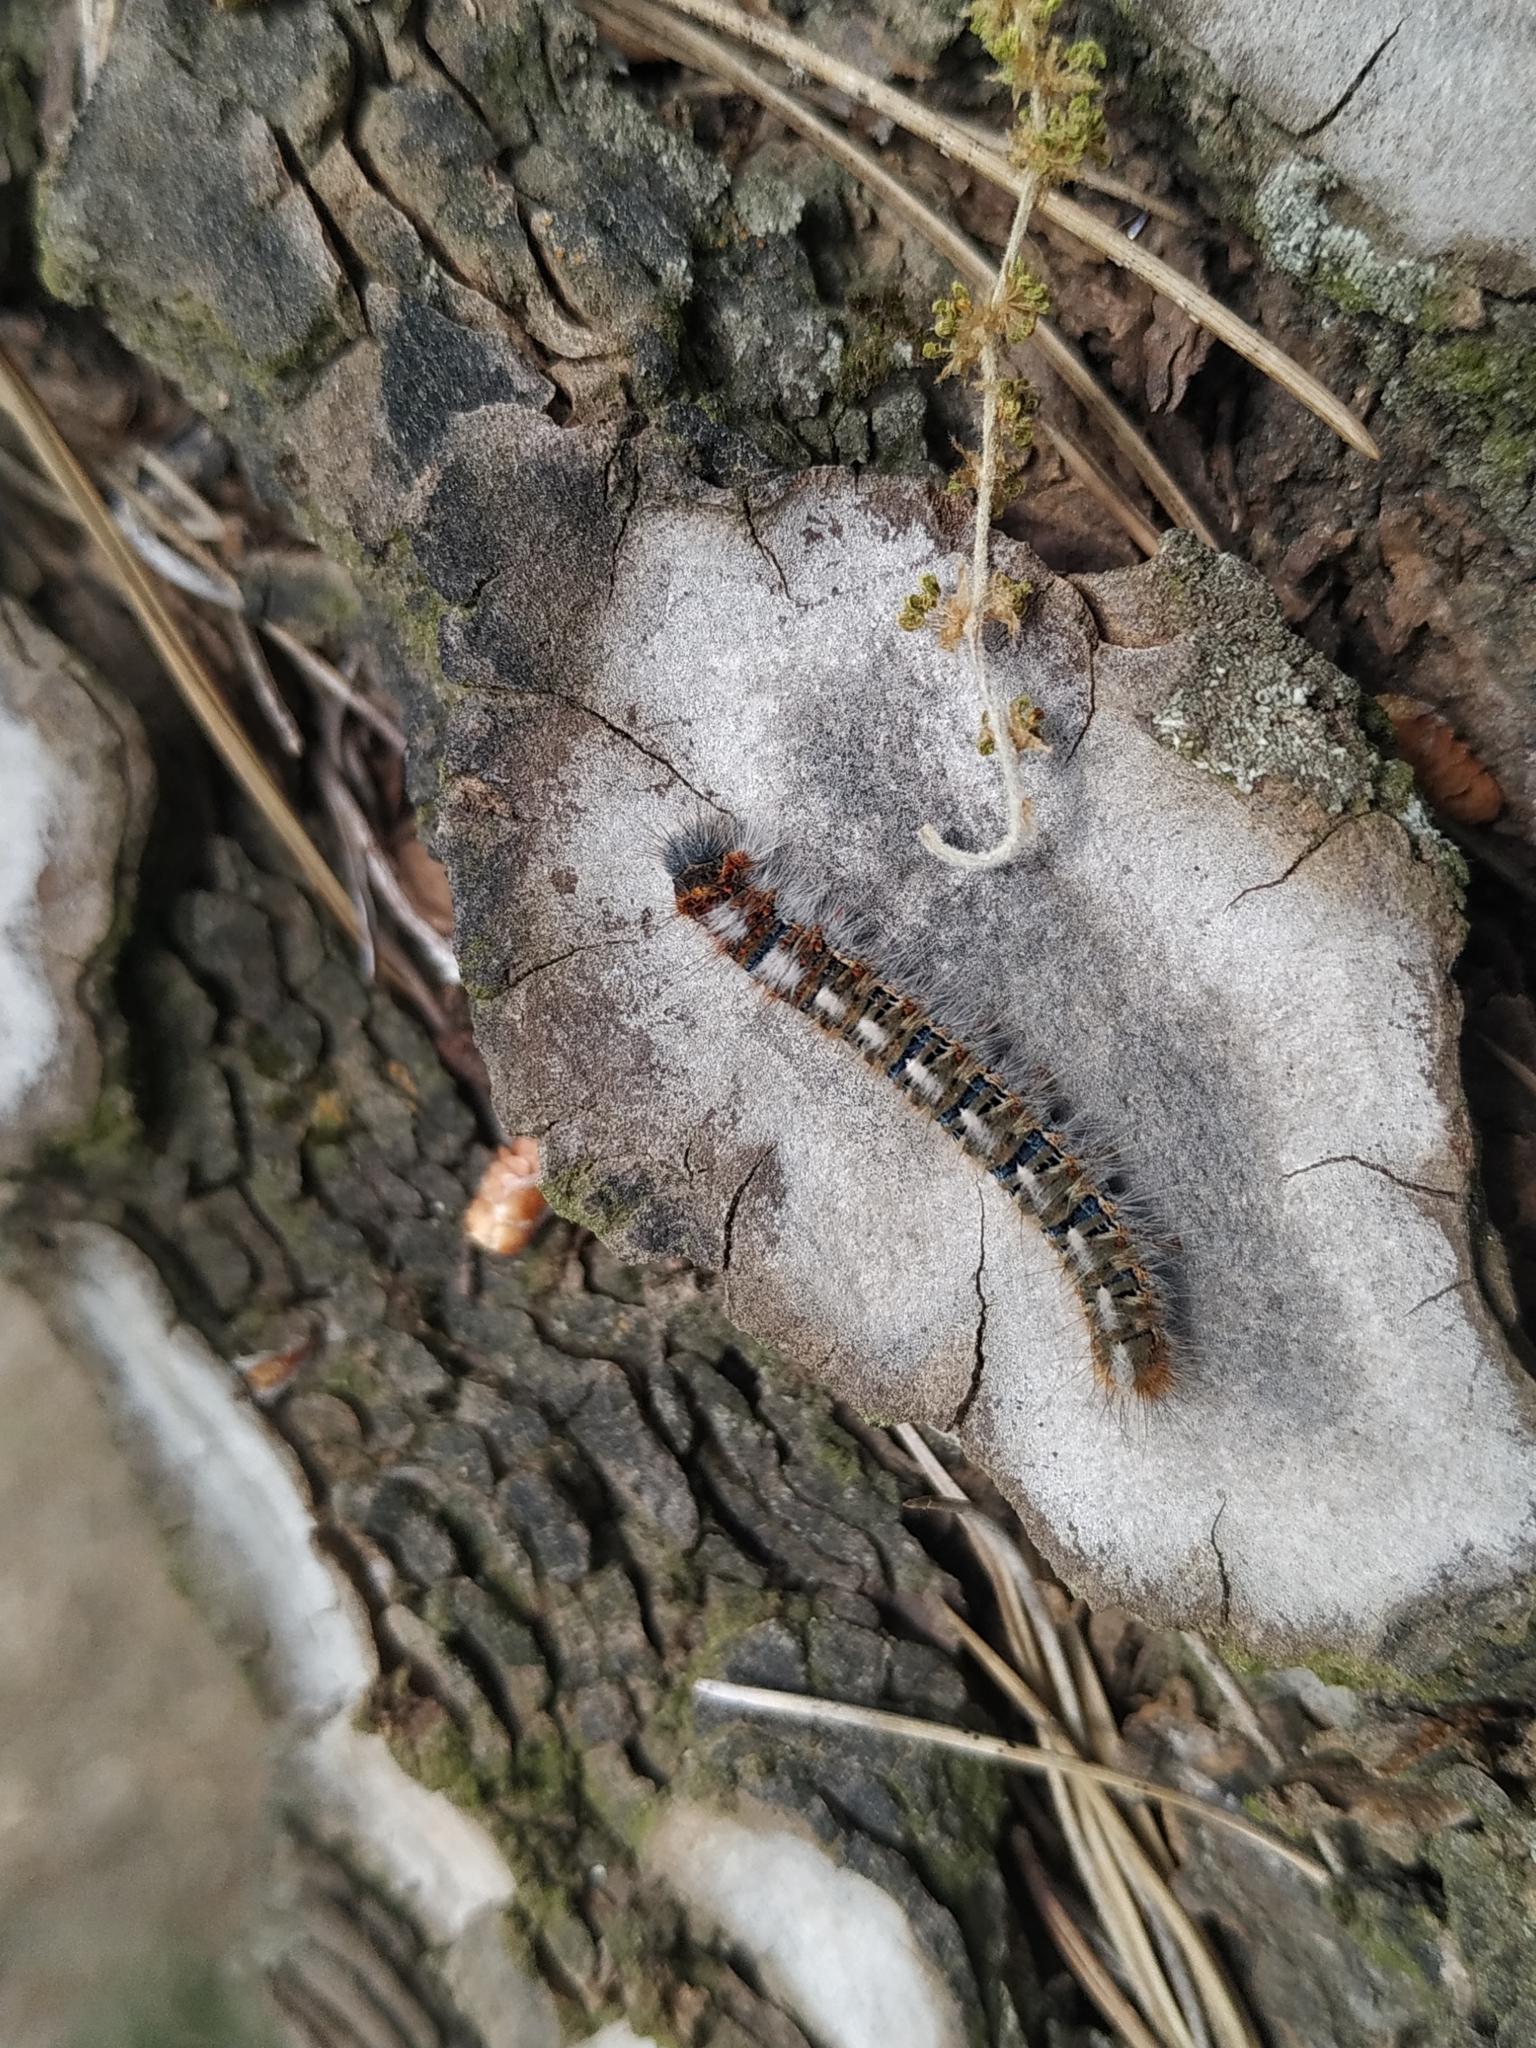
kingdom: Animalia
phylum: Arthropoda
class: Insecta
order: Lepidoptera
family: Lasiocampidae
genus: Lasiocampa
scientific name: Lasiocampa quercus
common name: Oak eggar
